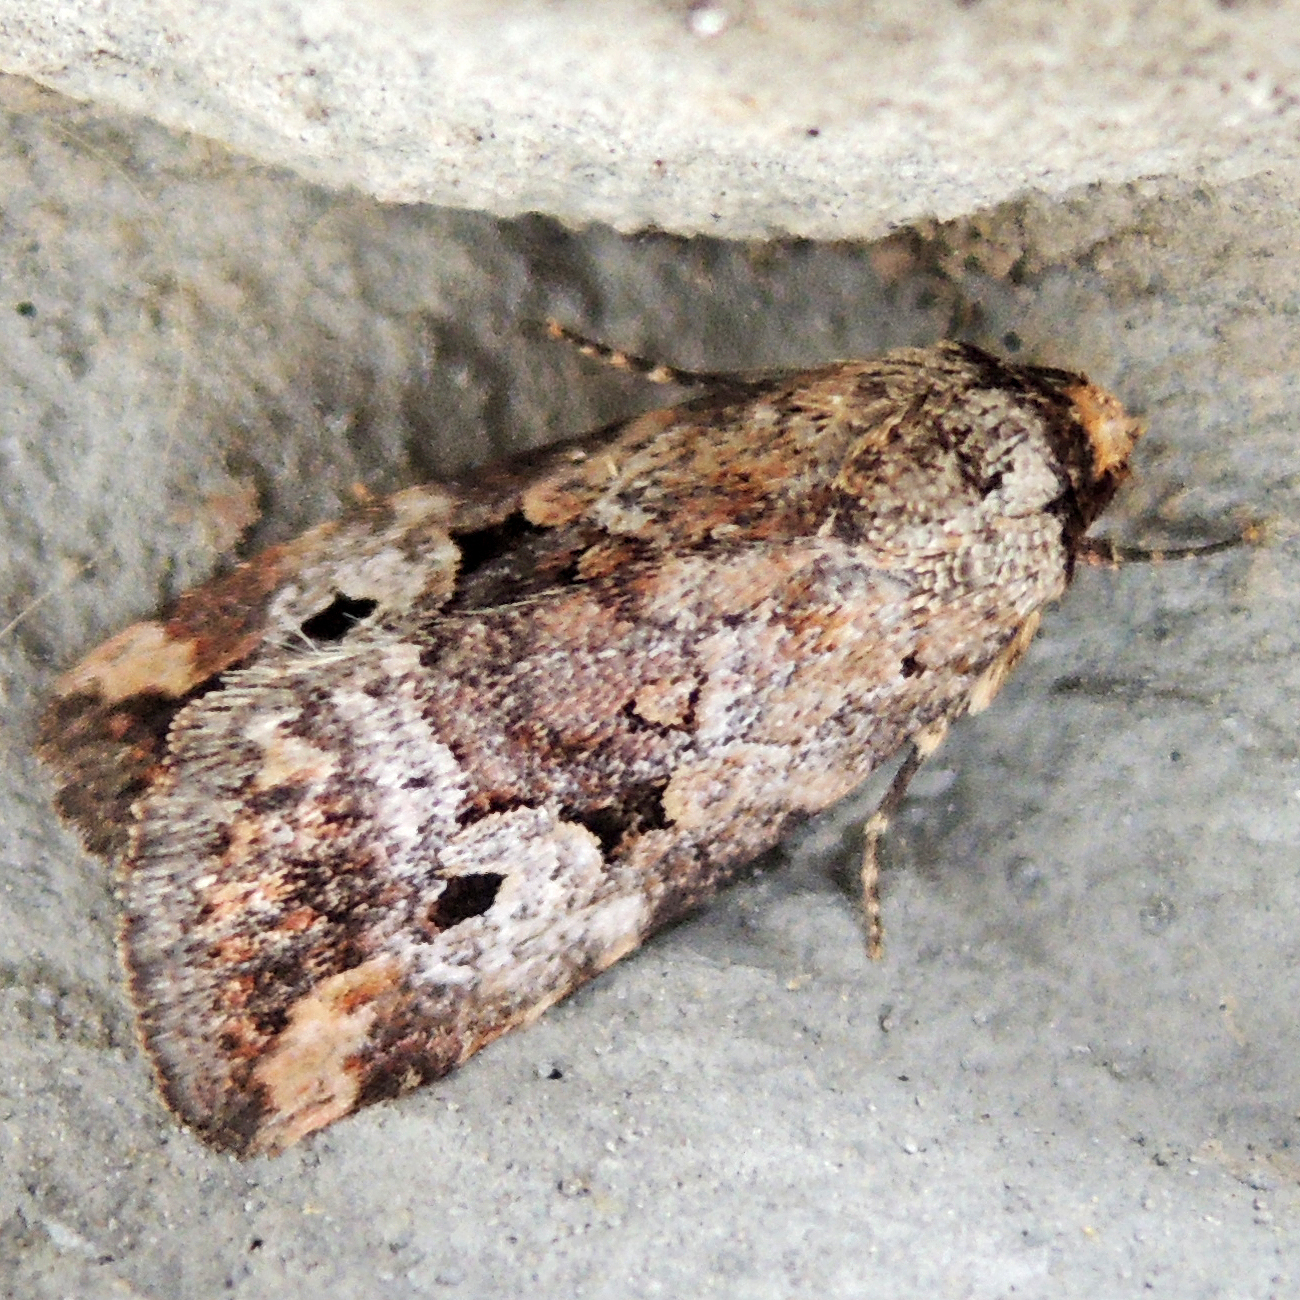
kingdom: Animalia
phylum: Arthropoda
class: Insecta
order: Lepidoptera
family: Noctuidae
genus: Elaphria
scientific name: Elaphria alapallida
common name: Pale-winged midget
